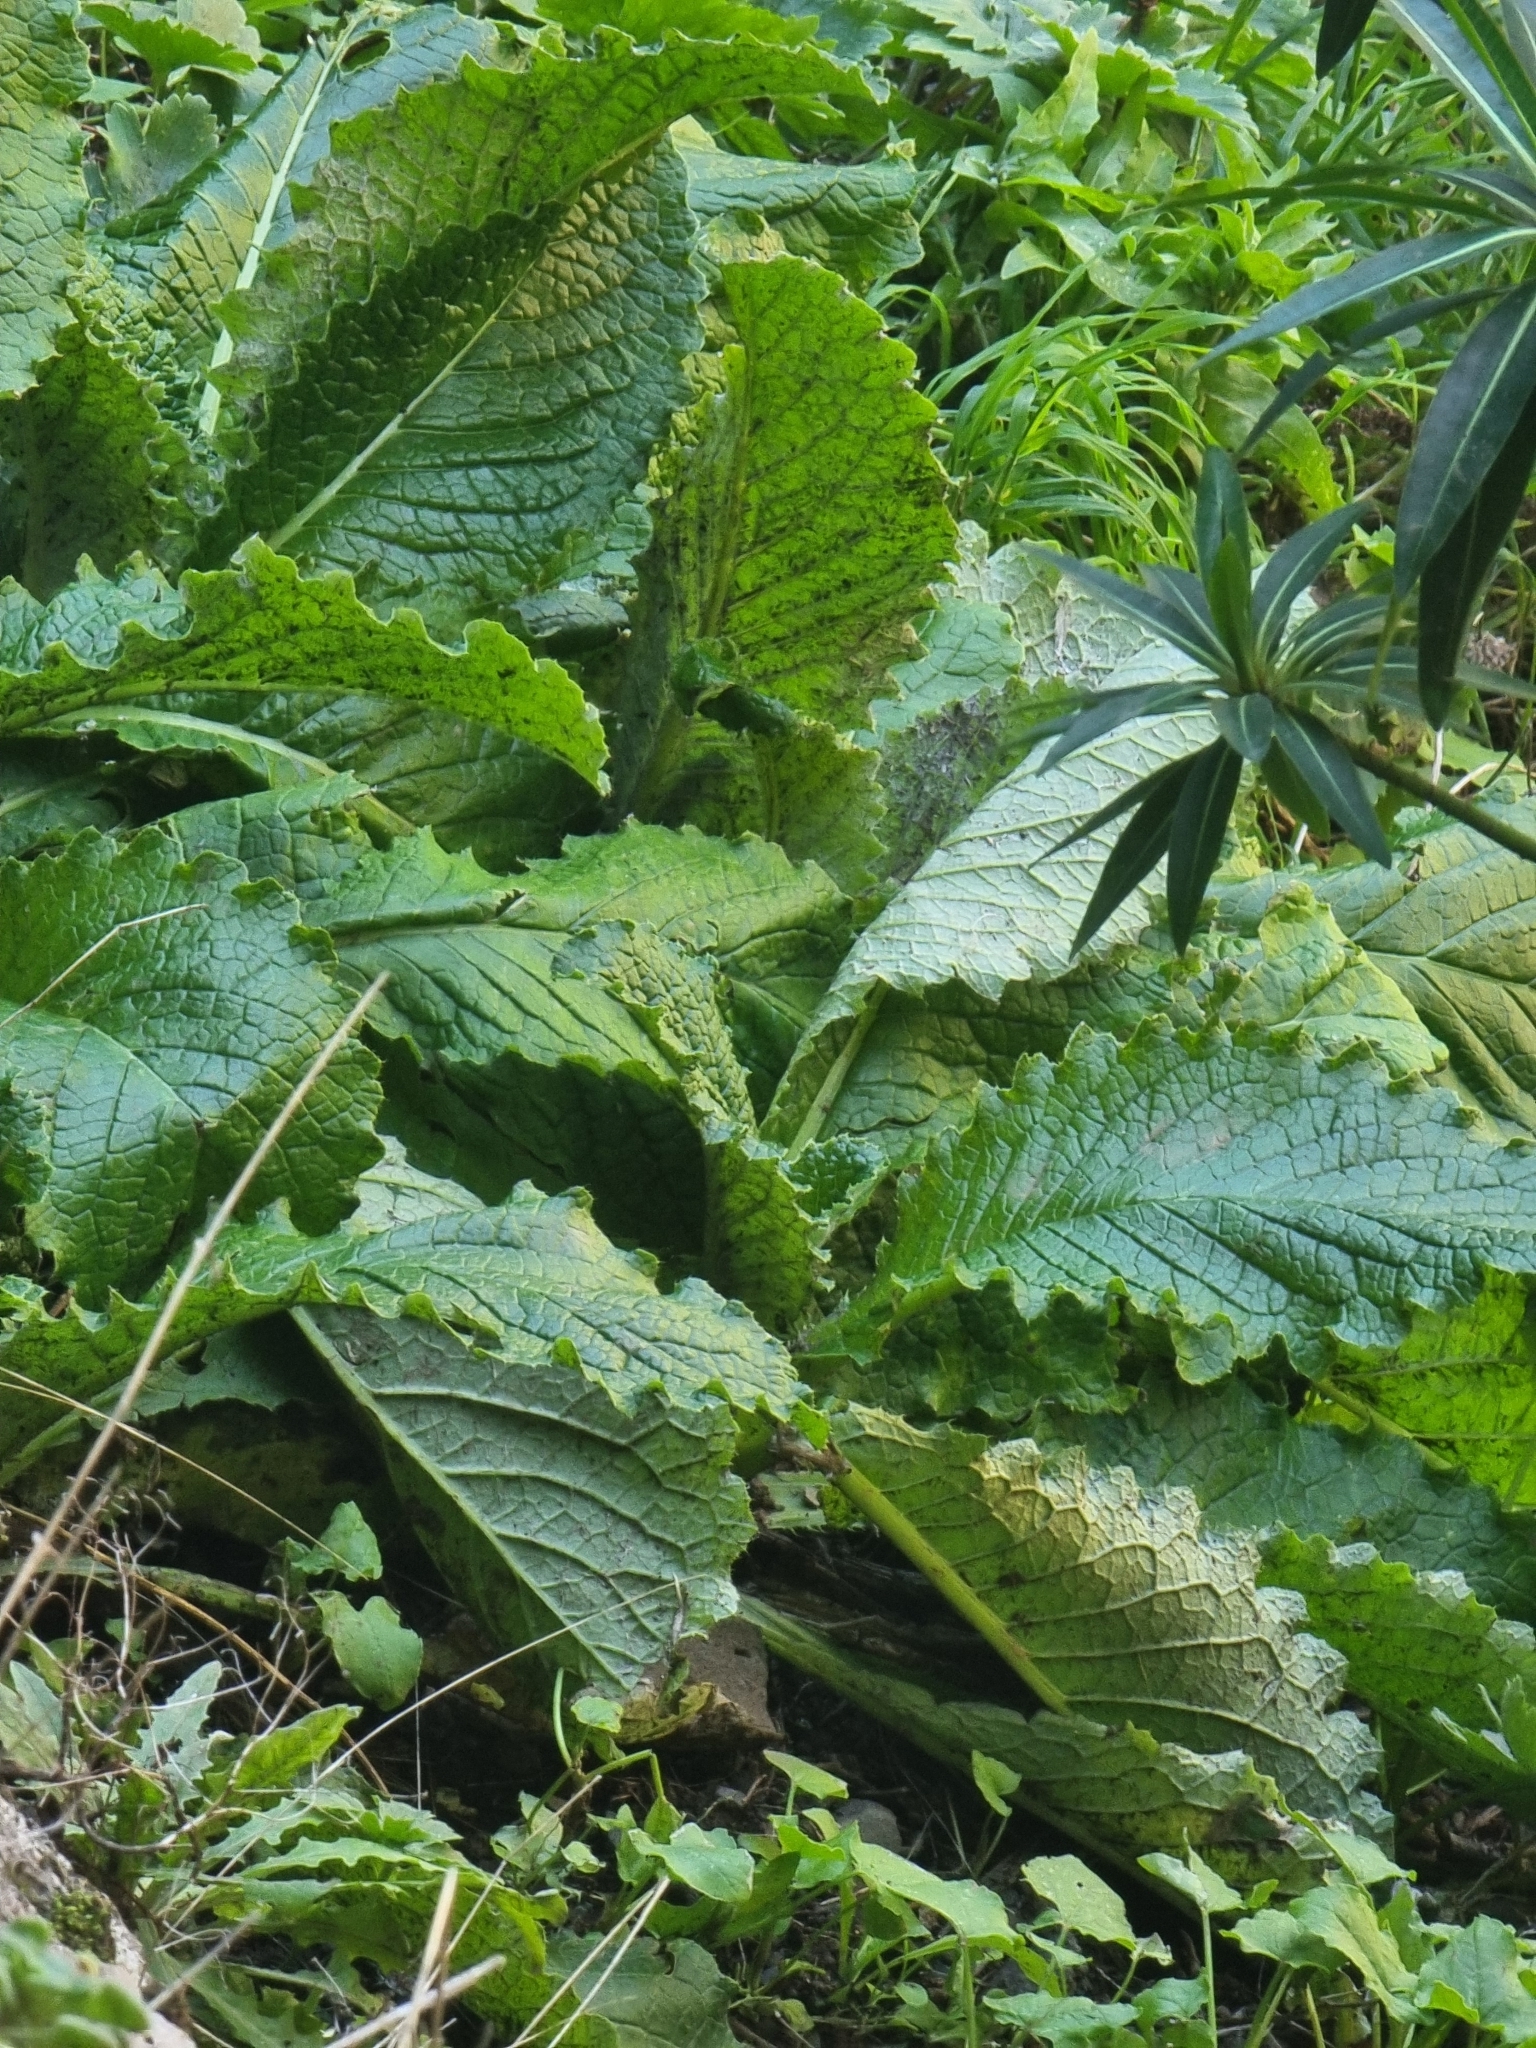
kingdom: Plantae
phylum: Tracheophyta
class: Magnoliopsida
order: Asterales
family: Asteraceae
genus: Cirsium
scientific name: Cirsium latifolium
